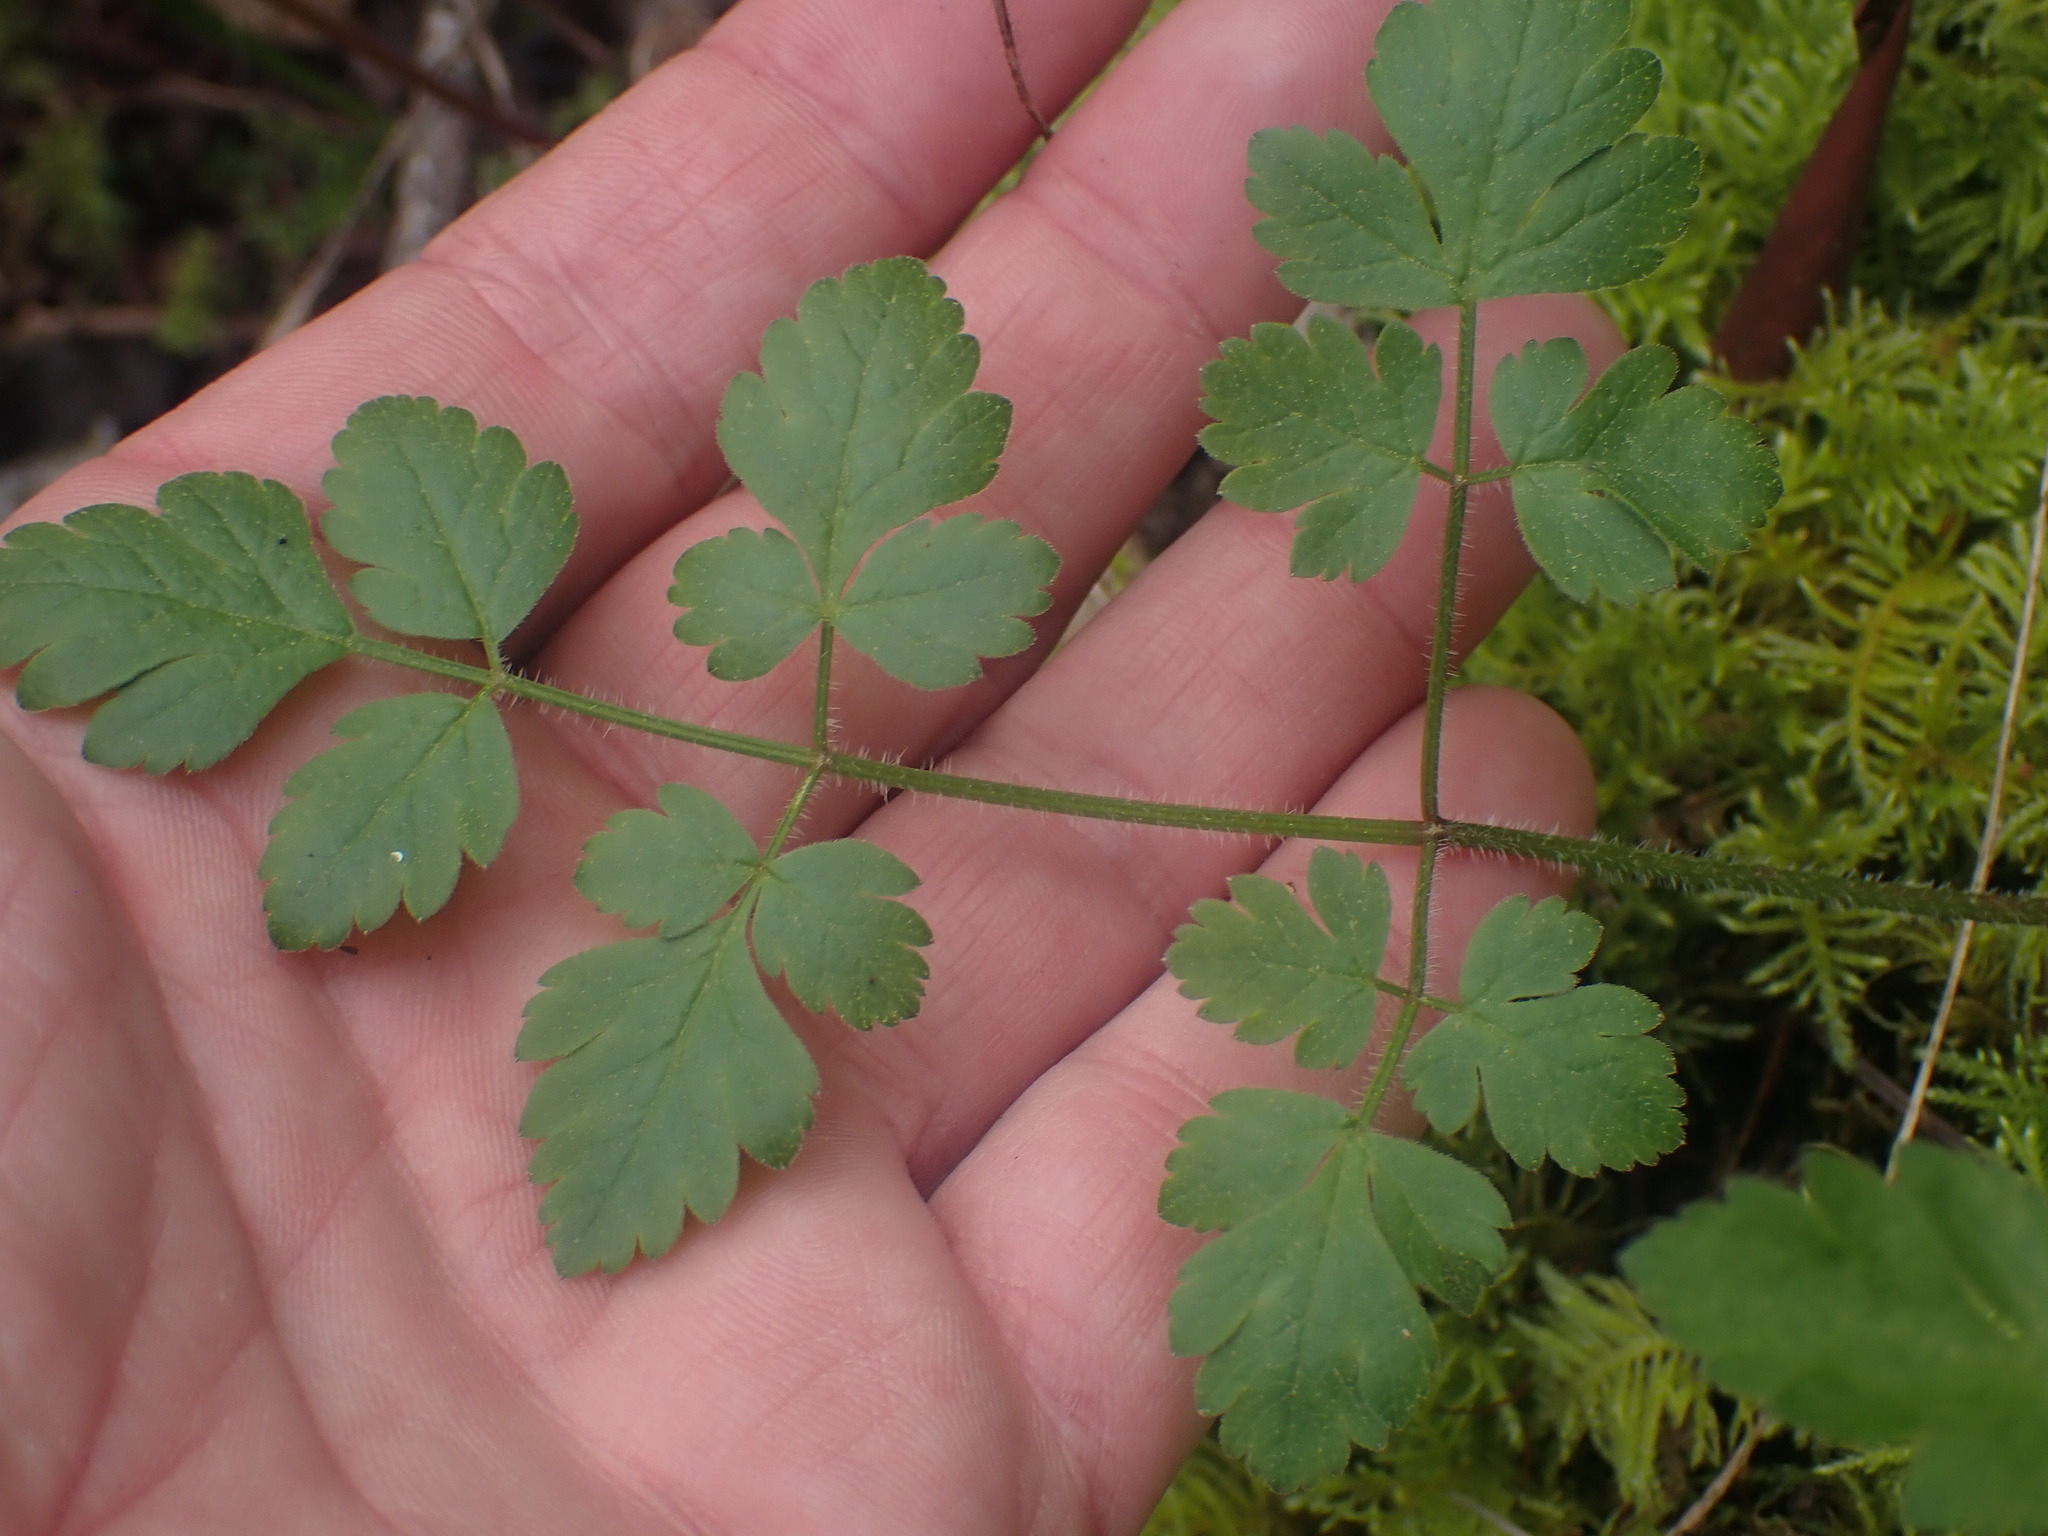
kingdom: Plantae
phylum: Tracheophyta
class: Magnoliopsida
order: Apiales
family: Apiaceae
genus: Osmorhiza
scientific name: Osmorhiza berteroi
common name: Mountain sweet cicely
